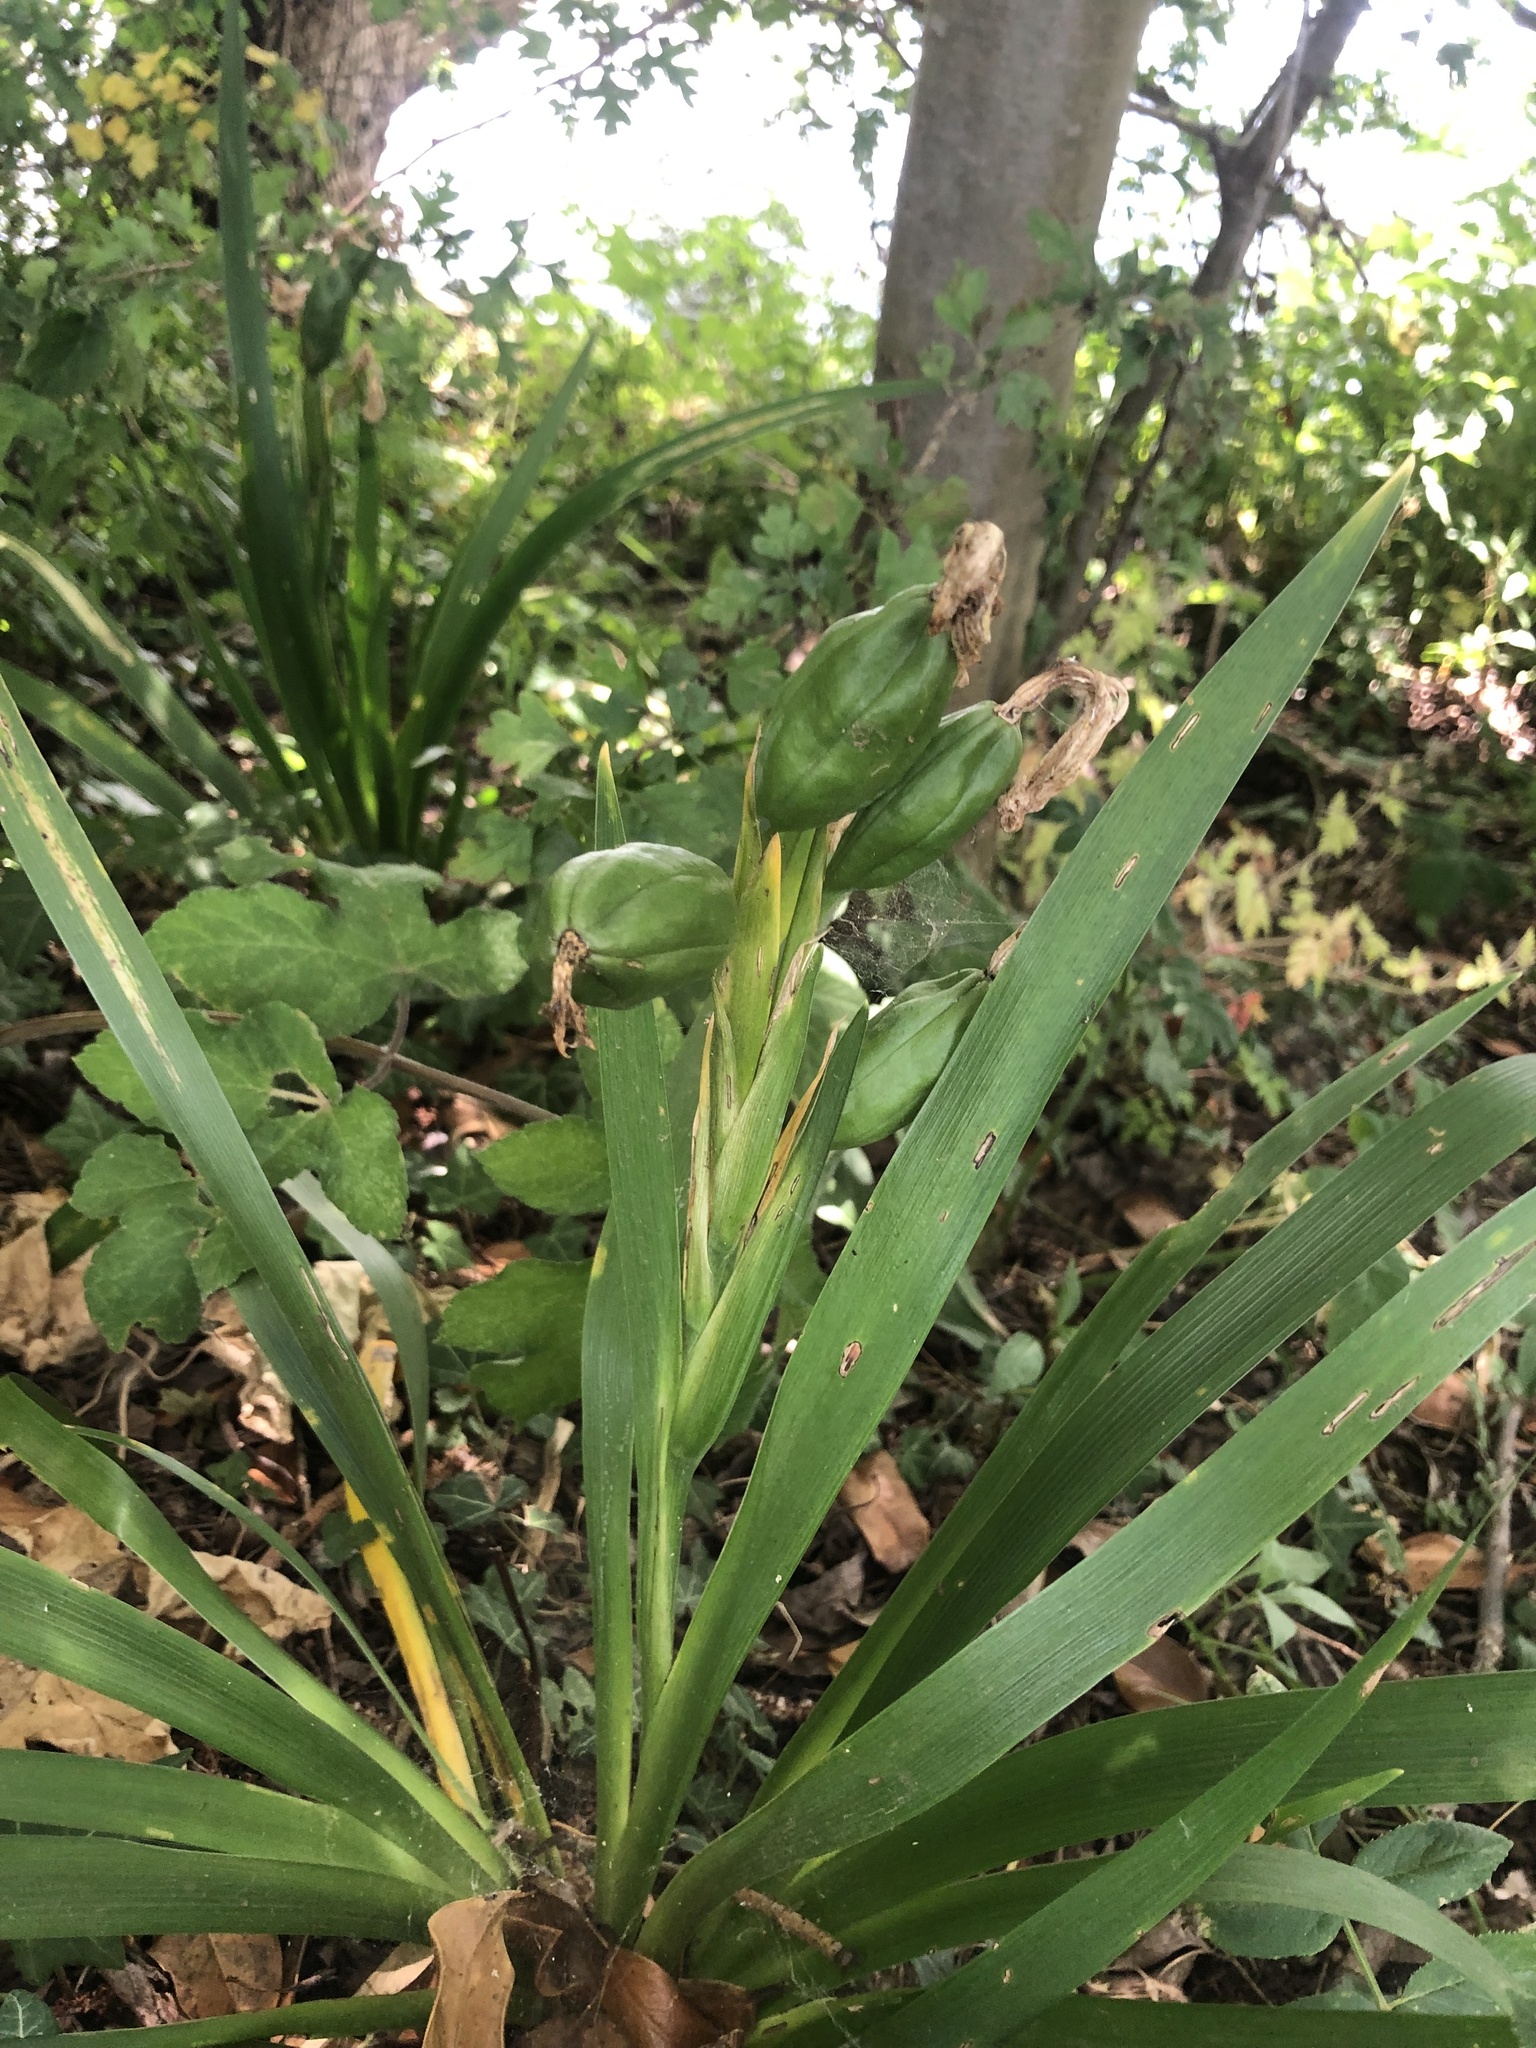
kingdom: Plantae
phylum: Tracheophyta
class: Liliopsida
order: Asparagales
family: Iridaceae
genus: Iris
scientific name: Iris foetidissima
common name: Stinking iris
